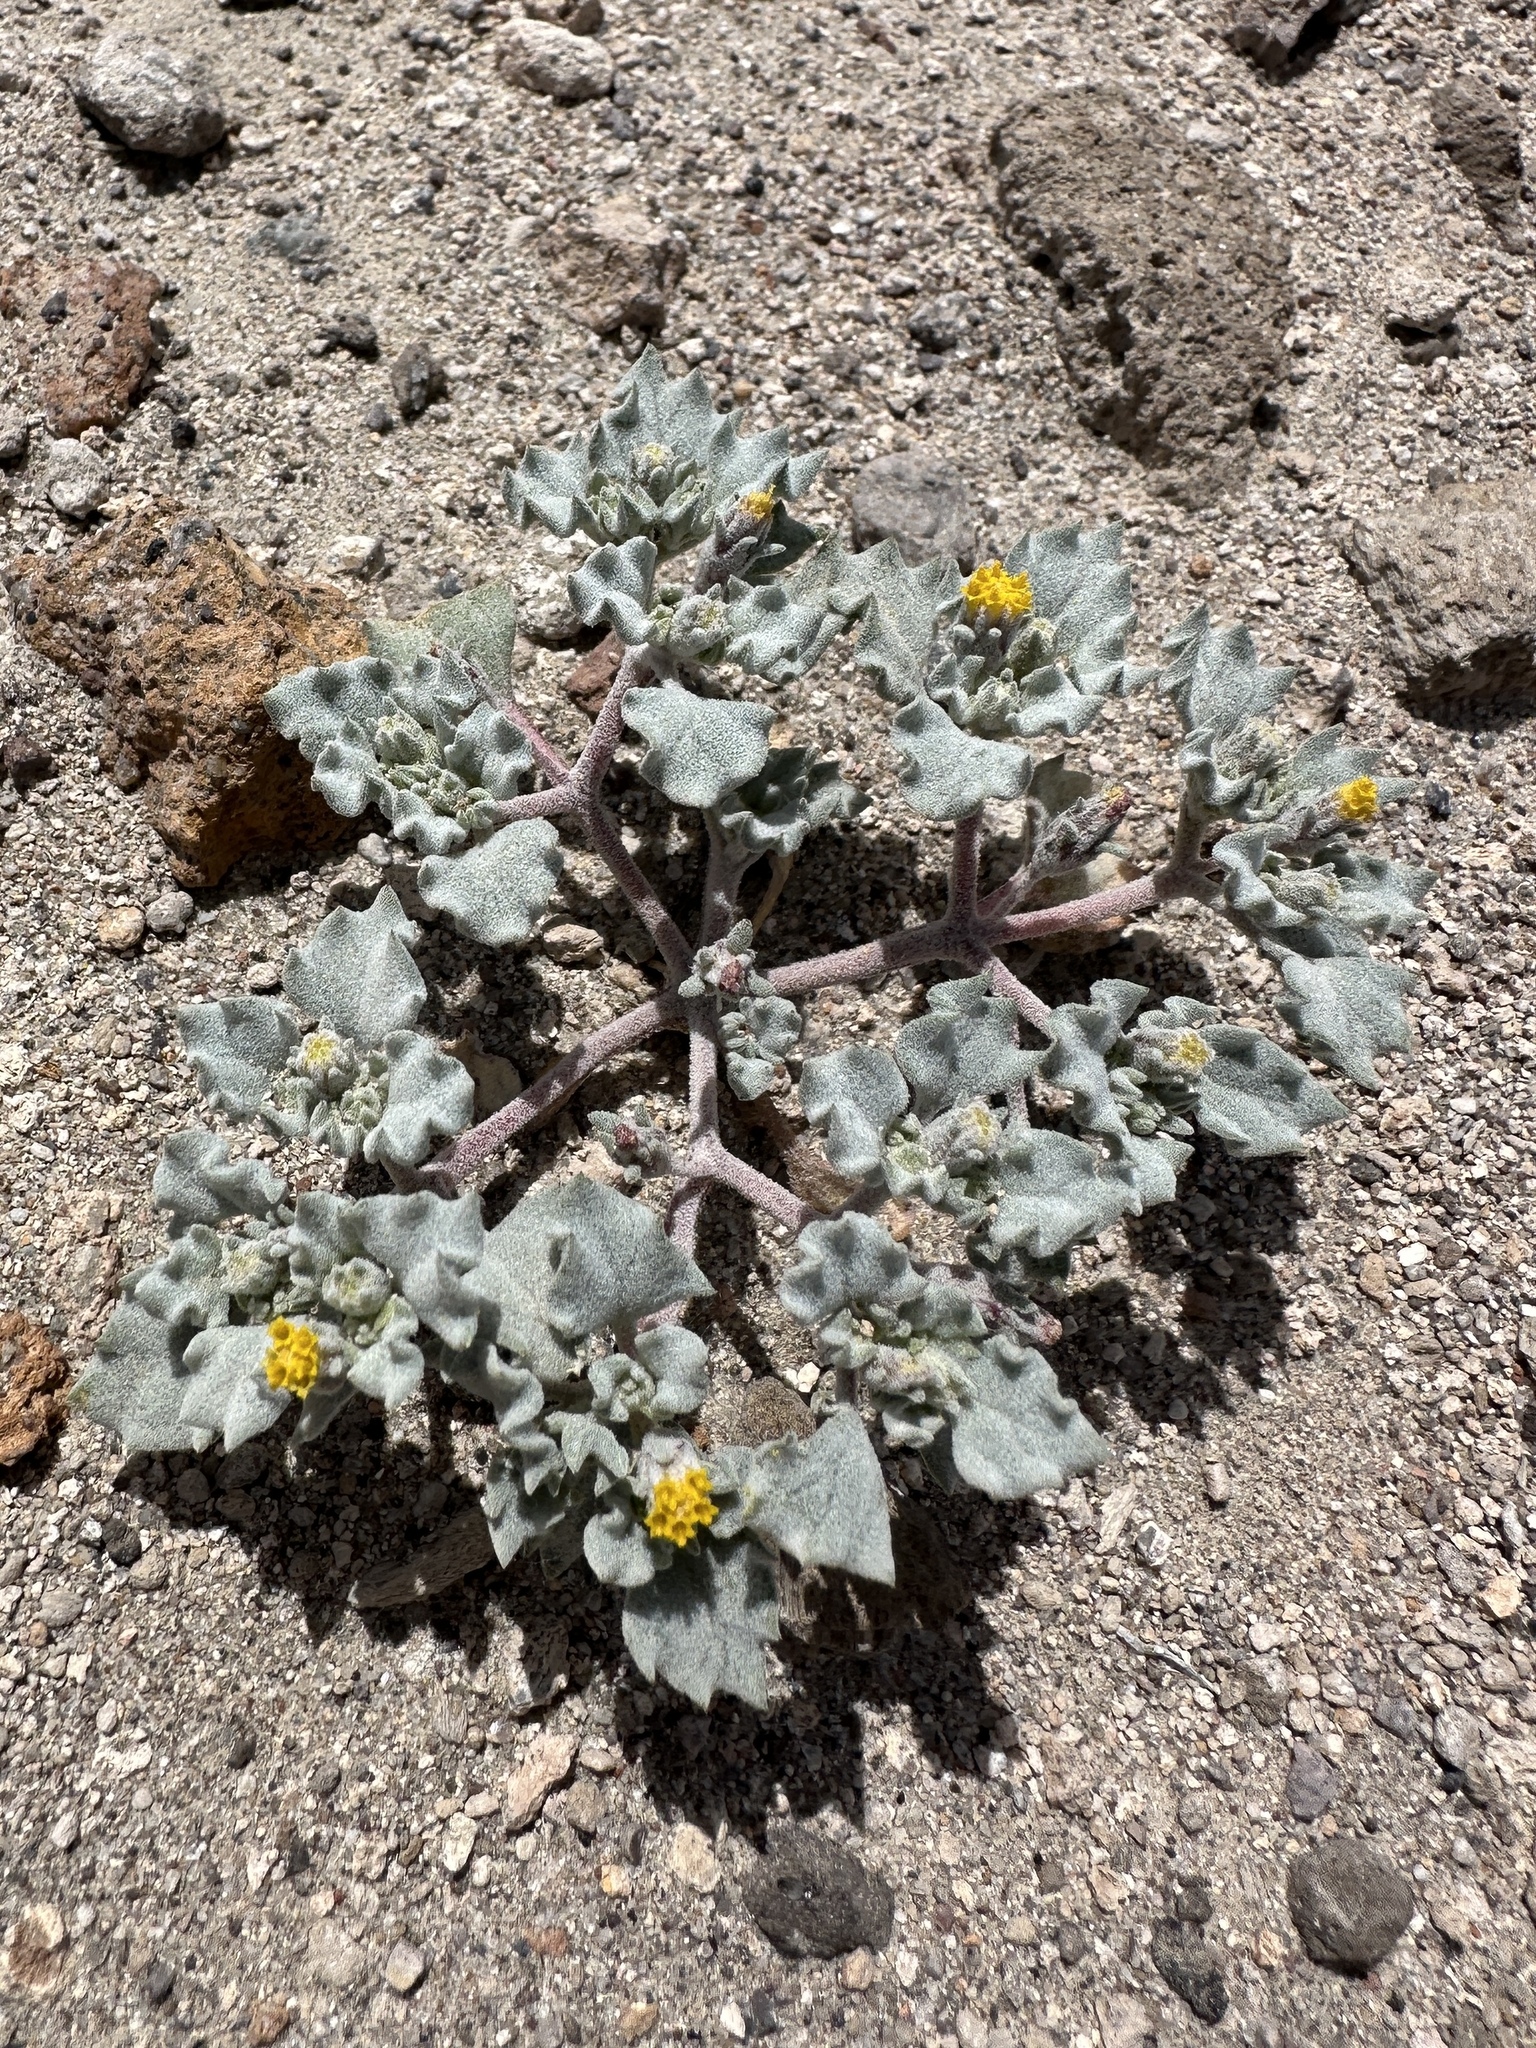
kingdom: Plantae
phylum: Tracheophyta
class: Magnoliopsida
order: Asterales
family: Asteraceae
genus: Psathyrotes
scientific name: Psathyrotes annua
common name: Mealy rosettes
